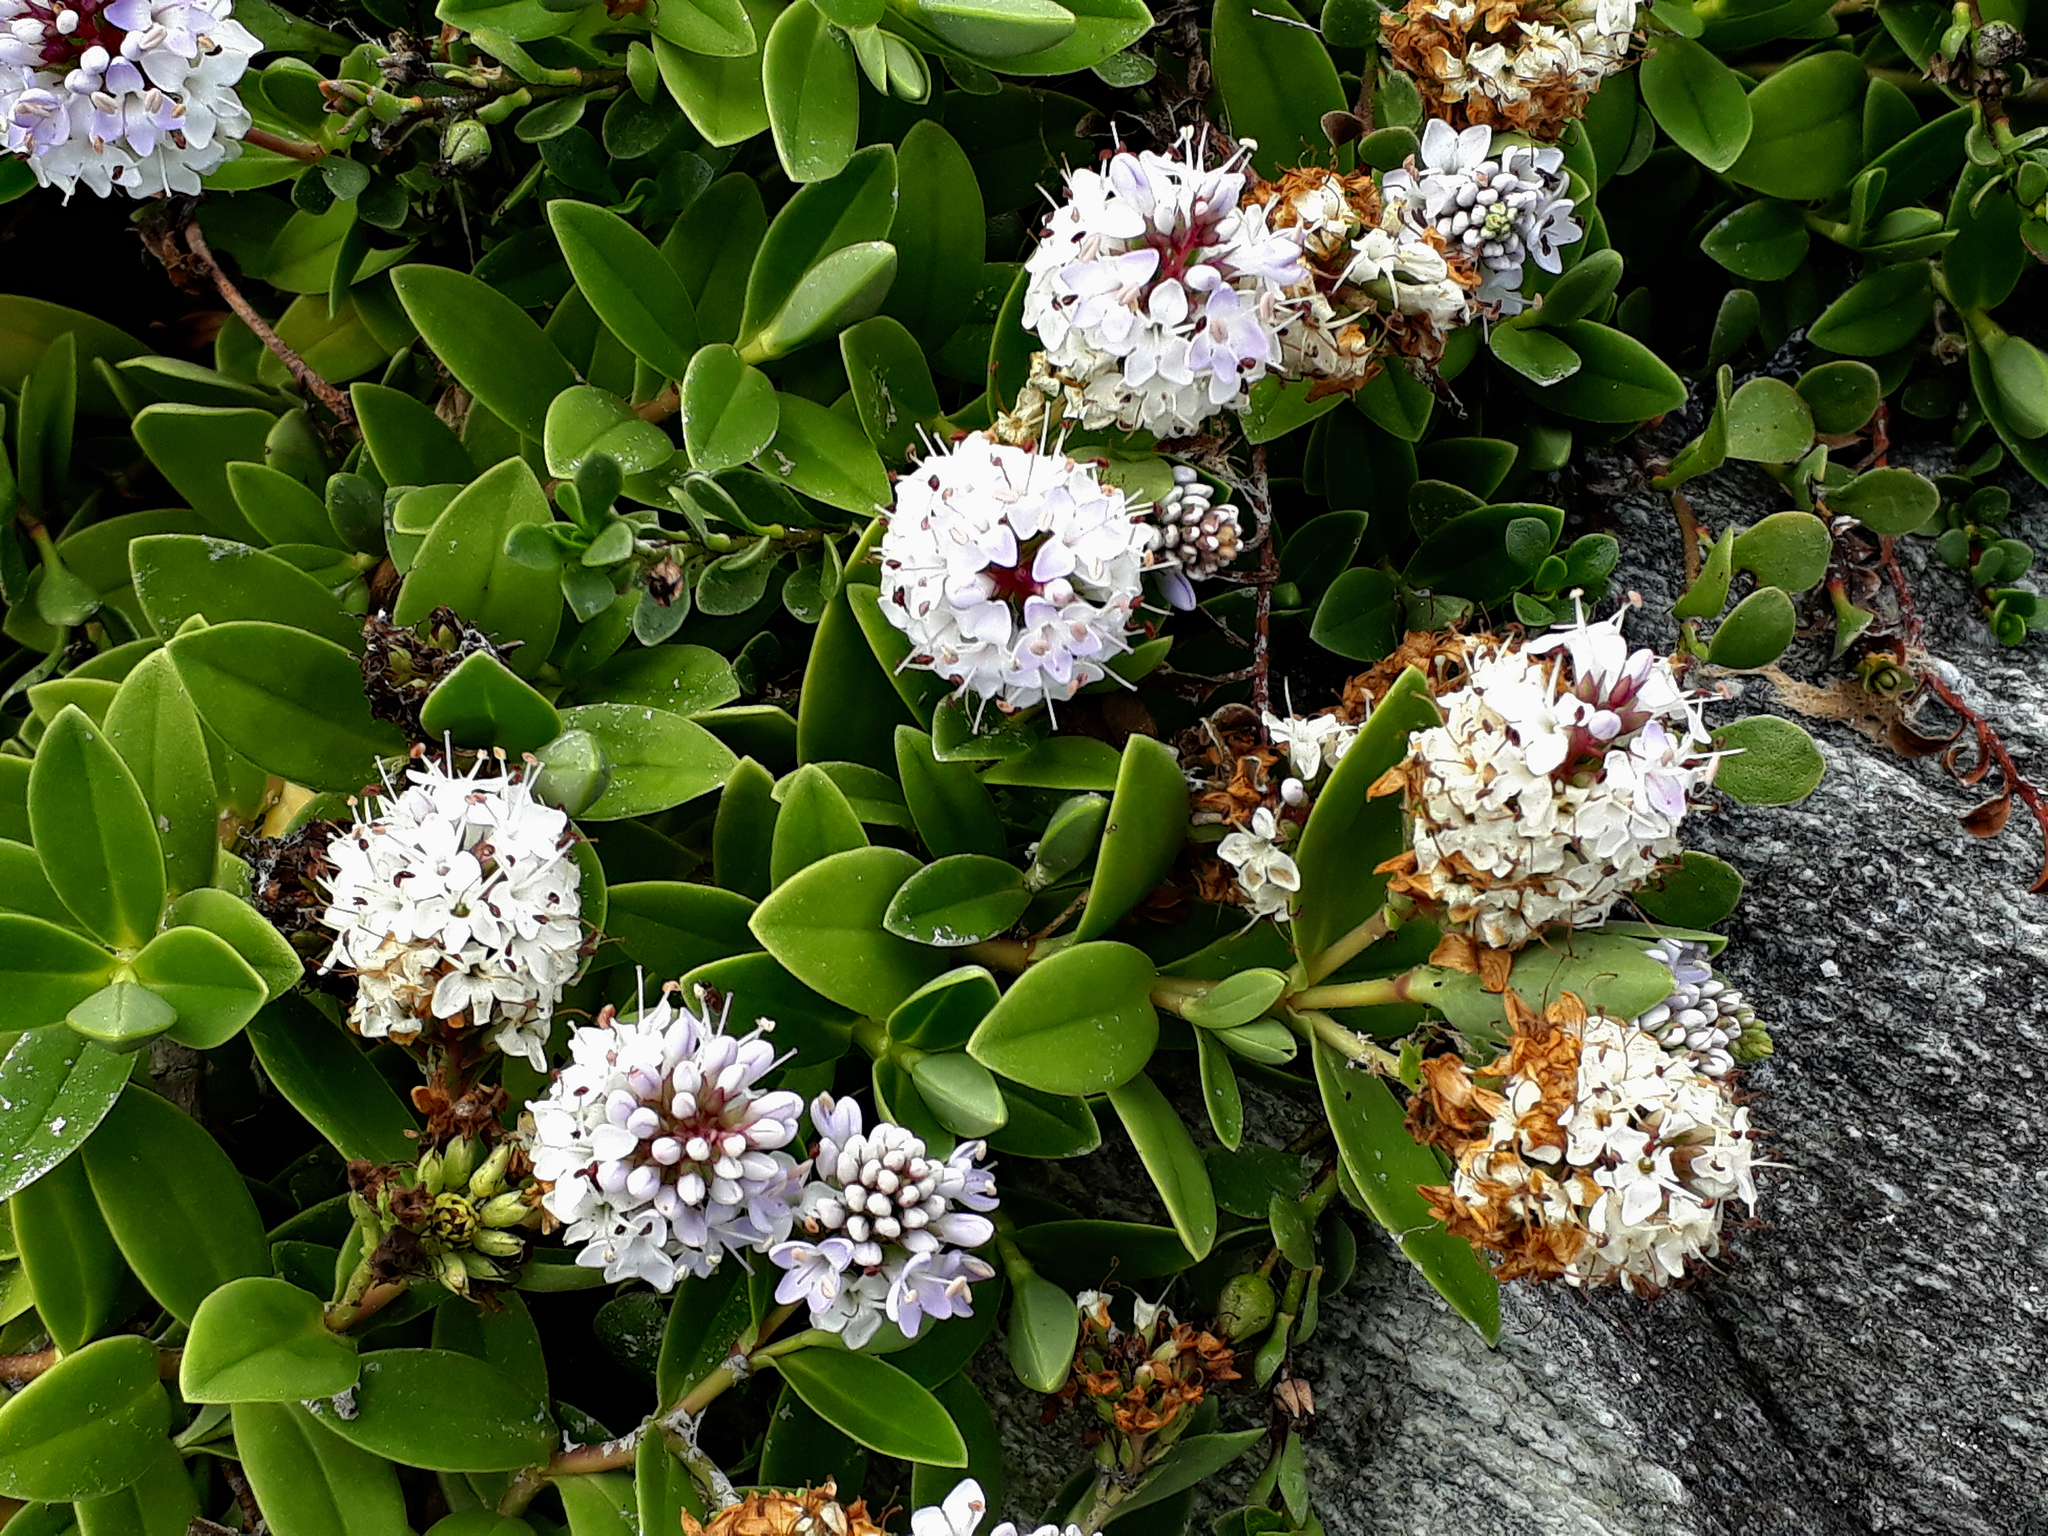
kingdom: Plantae
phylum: Tracheophyta
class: Magnoliopsida
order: Lamiales
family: Plantaginaceae
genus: Veronica
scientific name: Veronica chathamica
